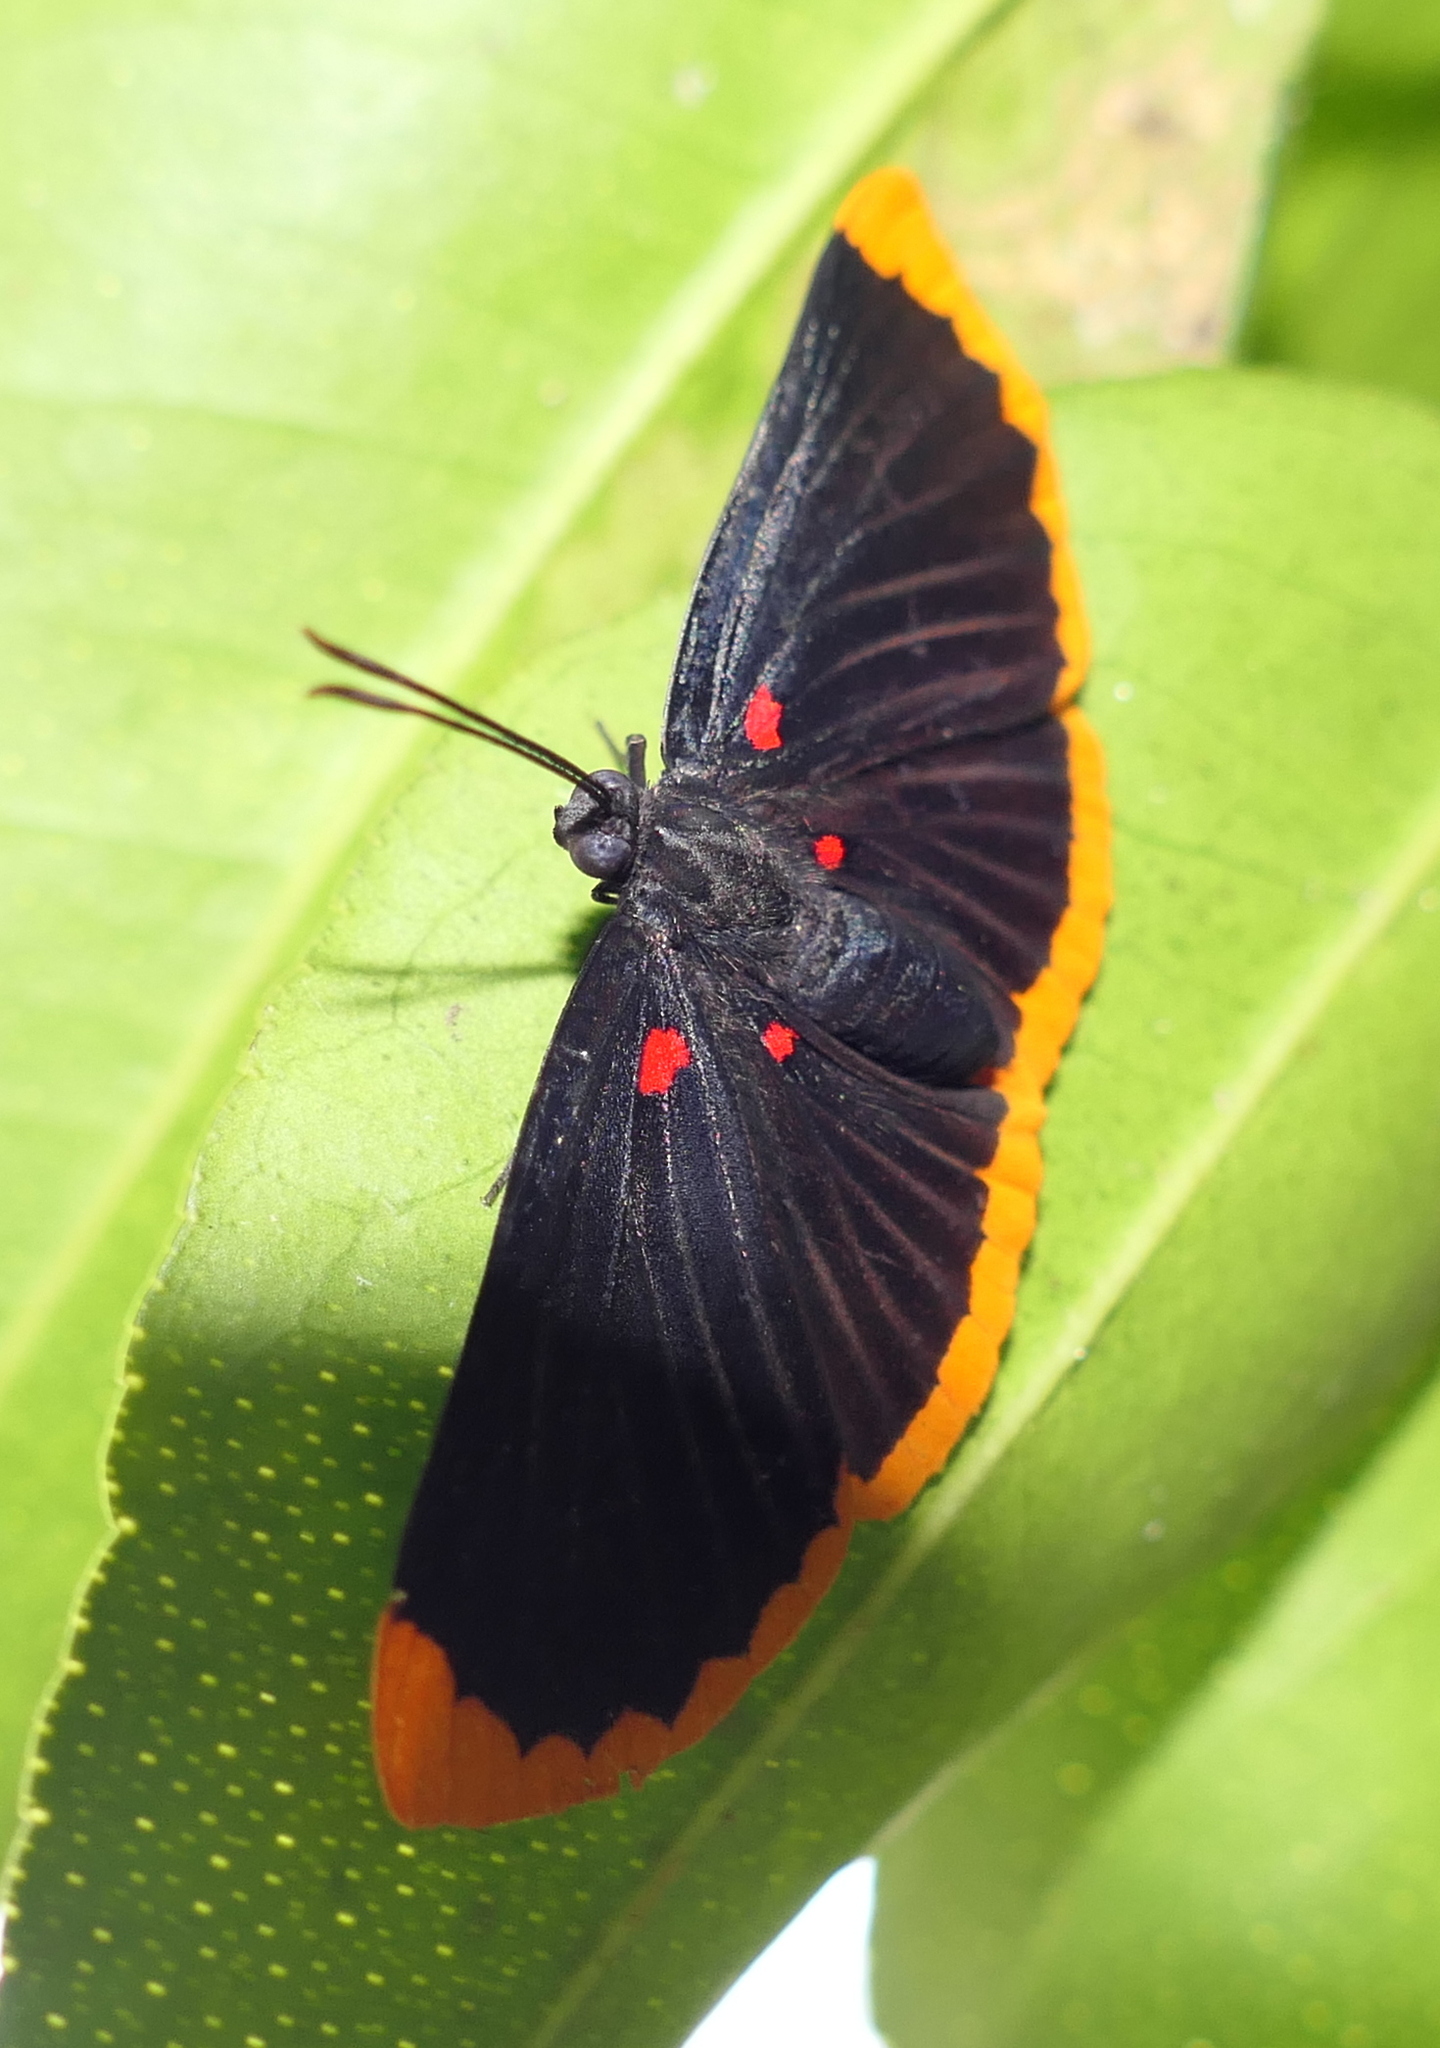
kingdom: Animalia
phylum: Arthropoda
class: Insecta
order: Lepidoptera
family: Lycaenidae
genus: Melanis
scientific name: Melanis smithiae
